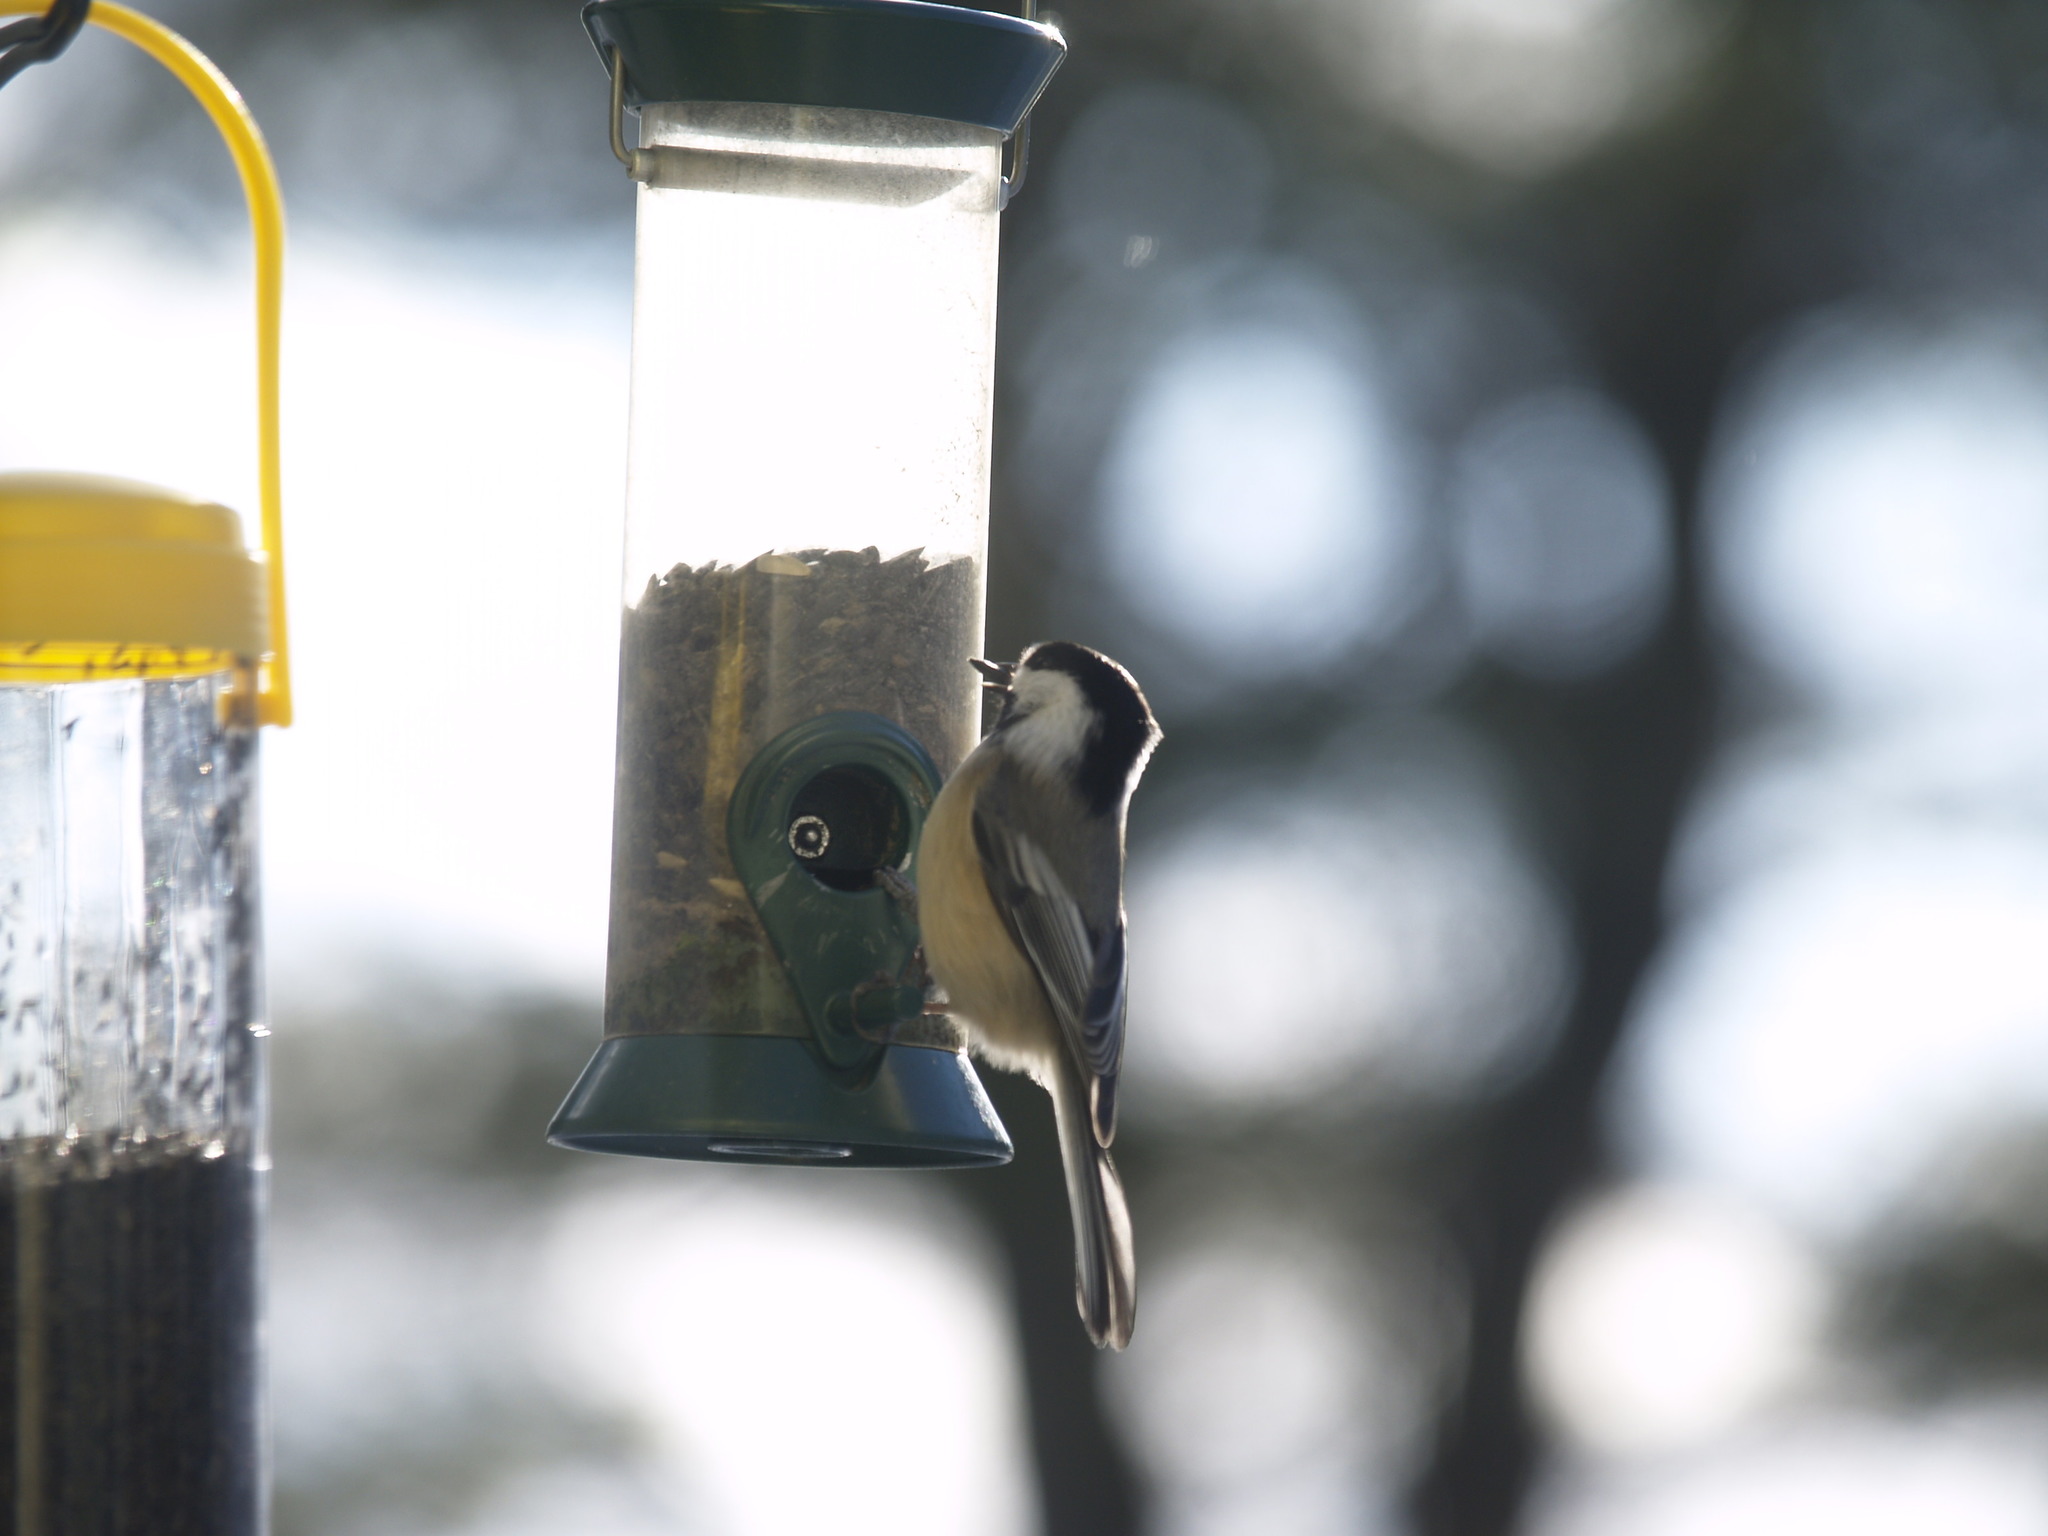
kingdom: Animalia
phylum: Chordata
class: Aves
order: Passeriformes
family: Paridae
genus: Poecile
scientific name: Poecile atricapillus
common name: Black-capped chickadee
